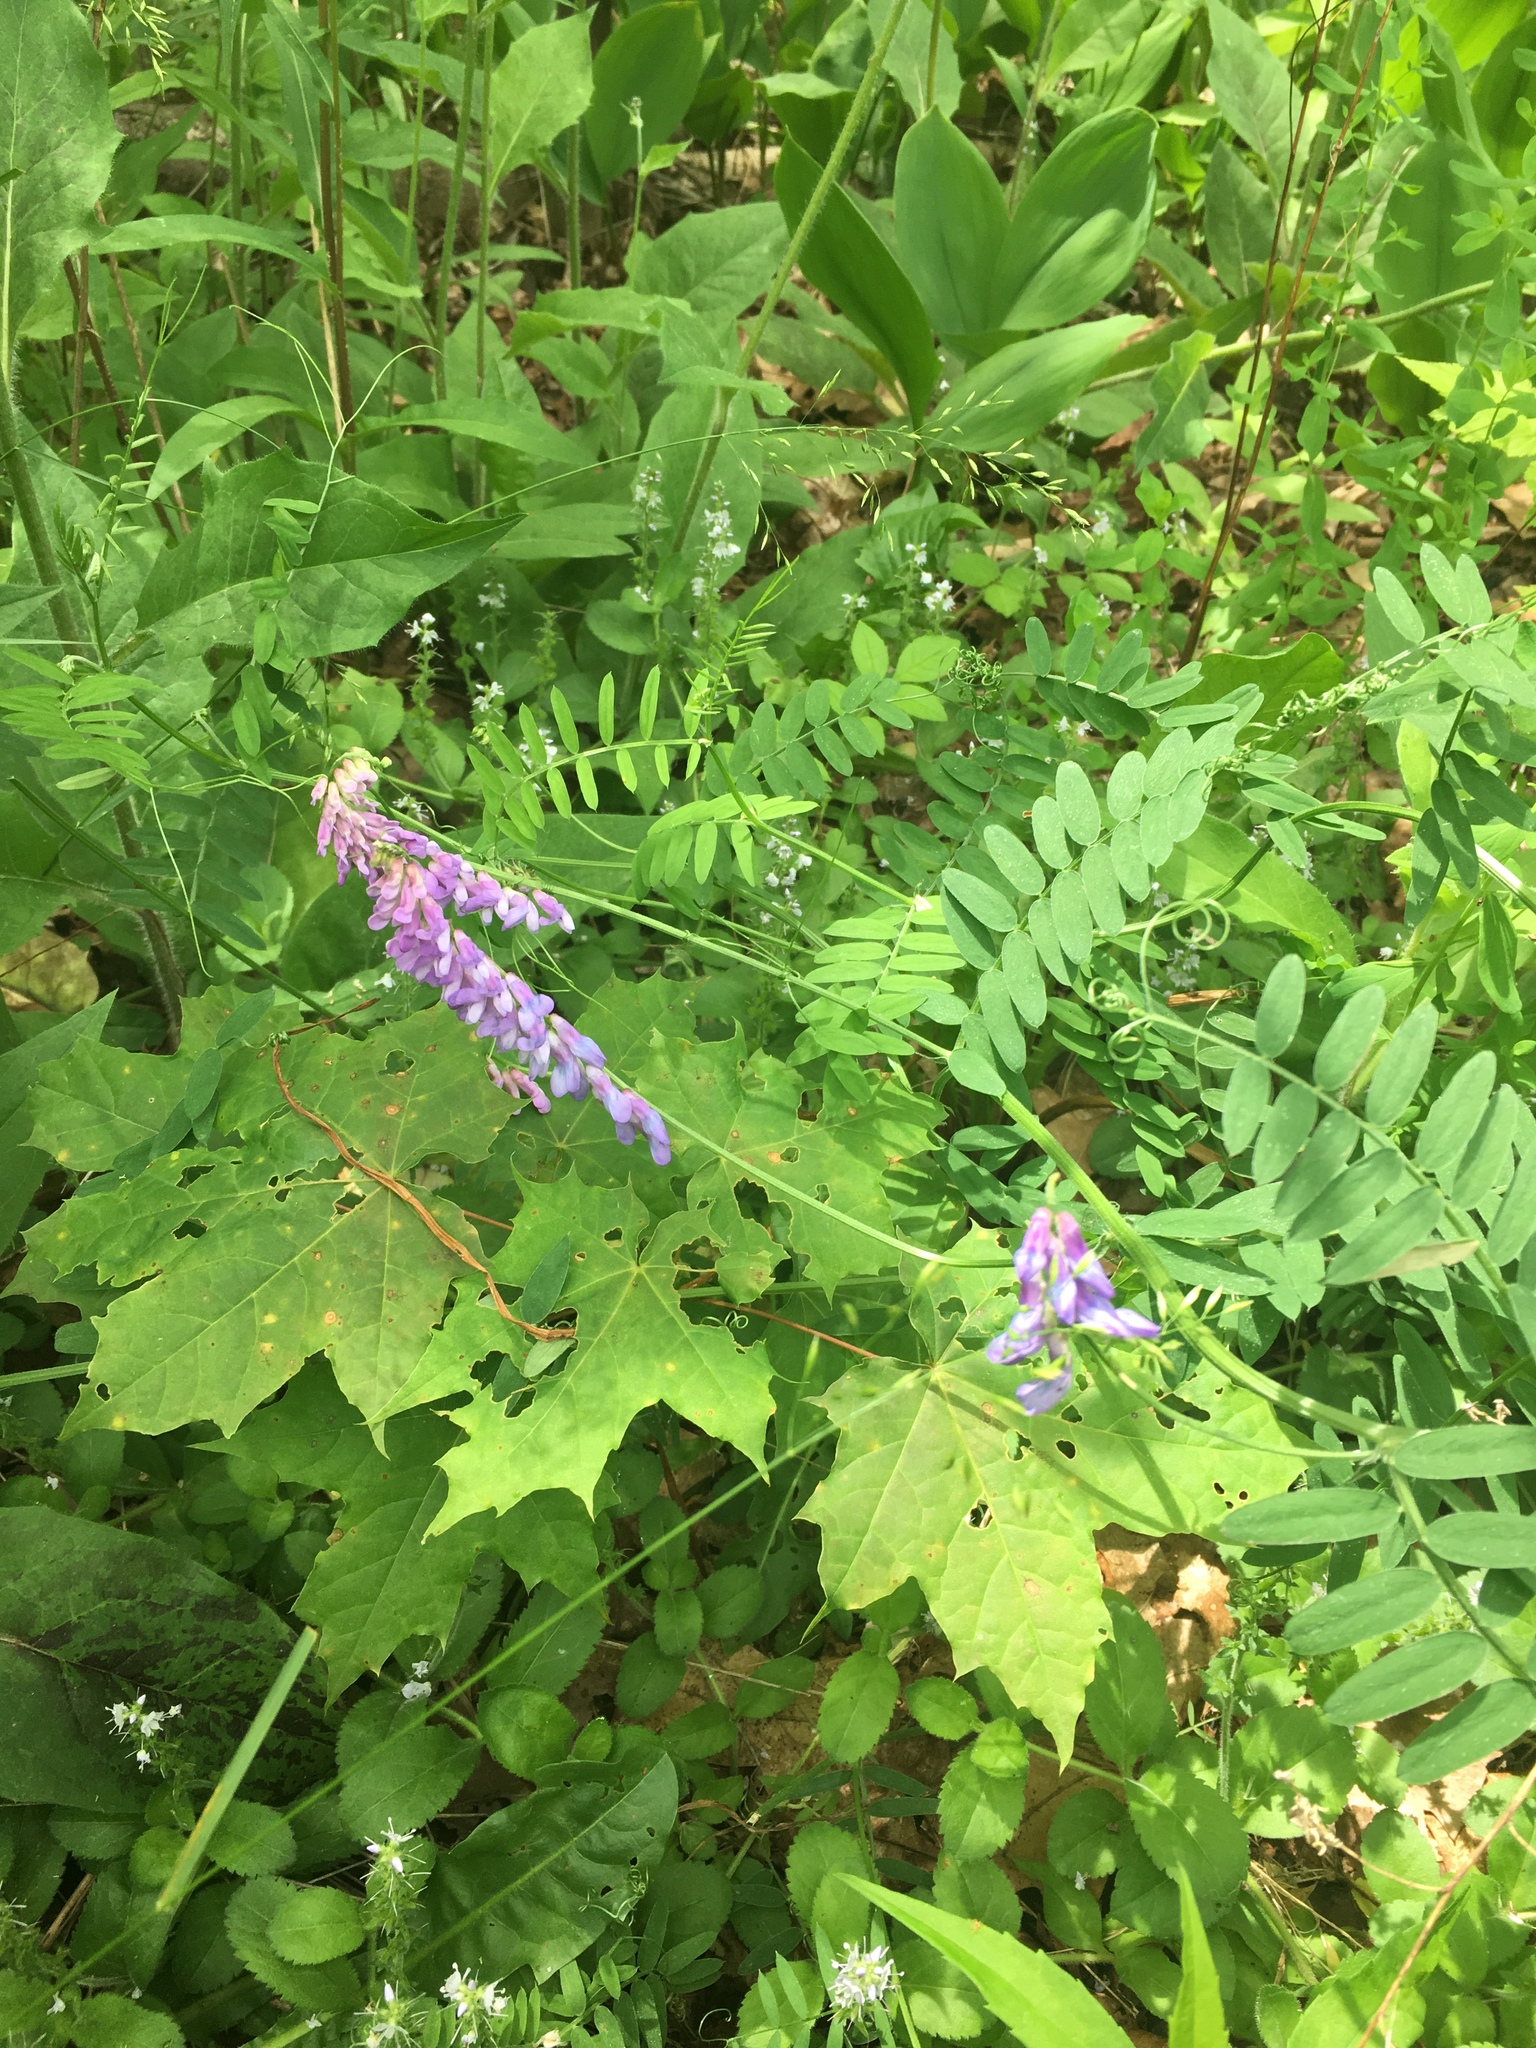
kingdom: Plantae
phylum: Tracheophyta
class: Magnoliopsida
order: Fabales
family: Fabaceae
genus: Vicia
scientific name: Vicia cracca
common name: Bird vetch
